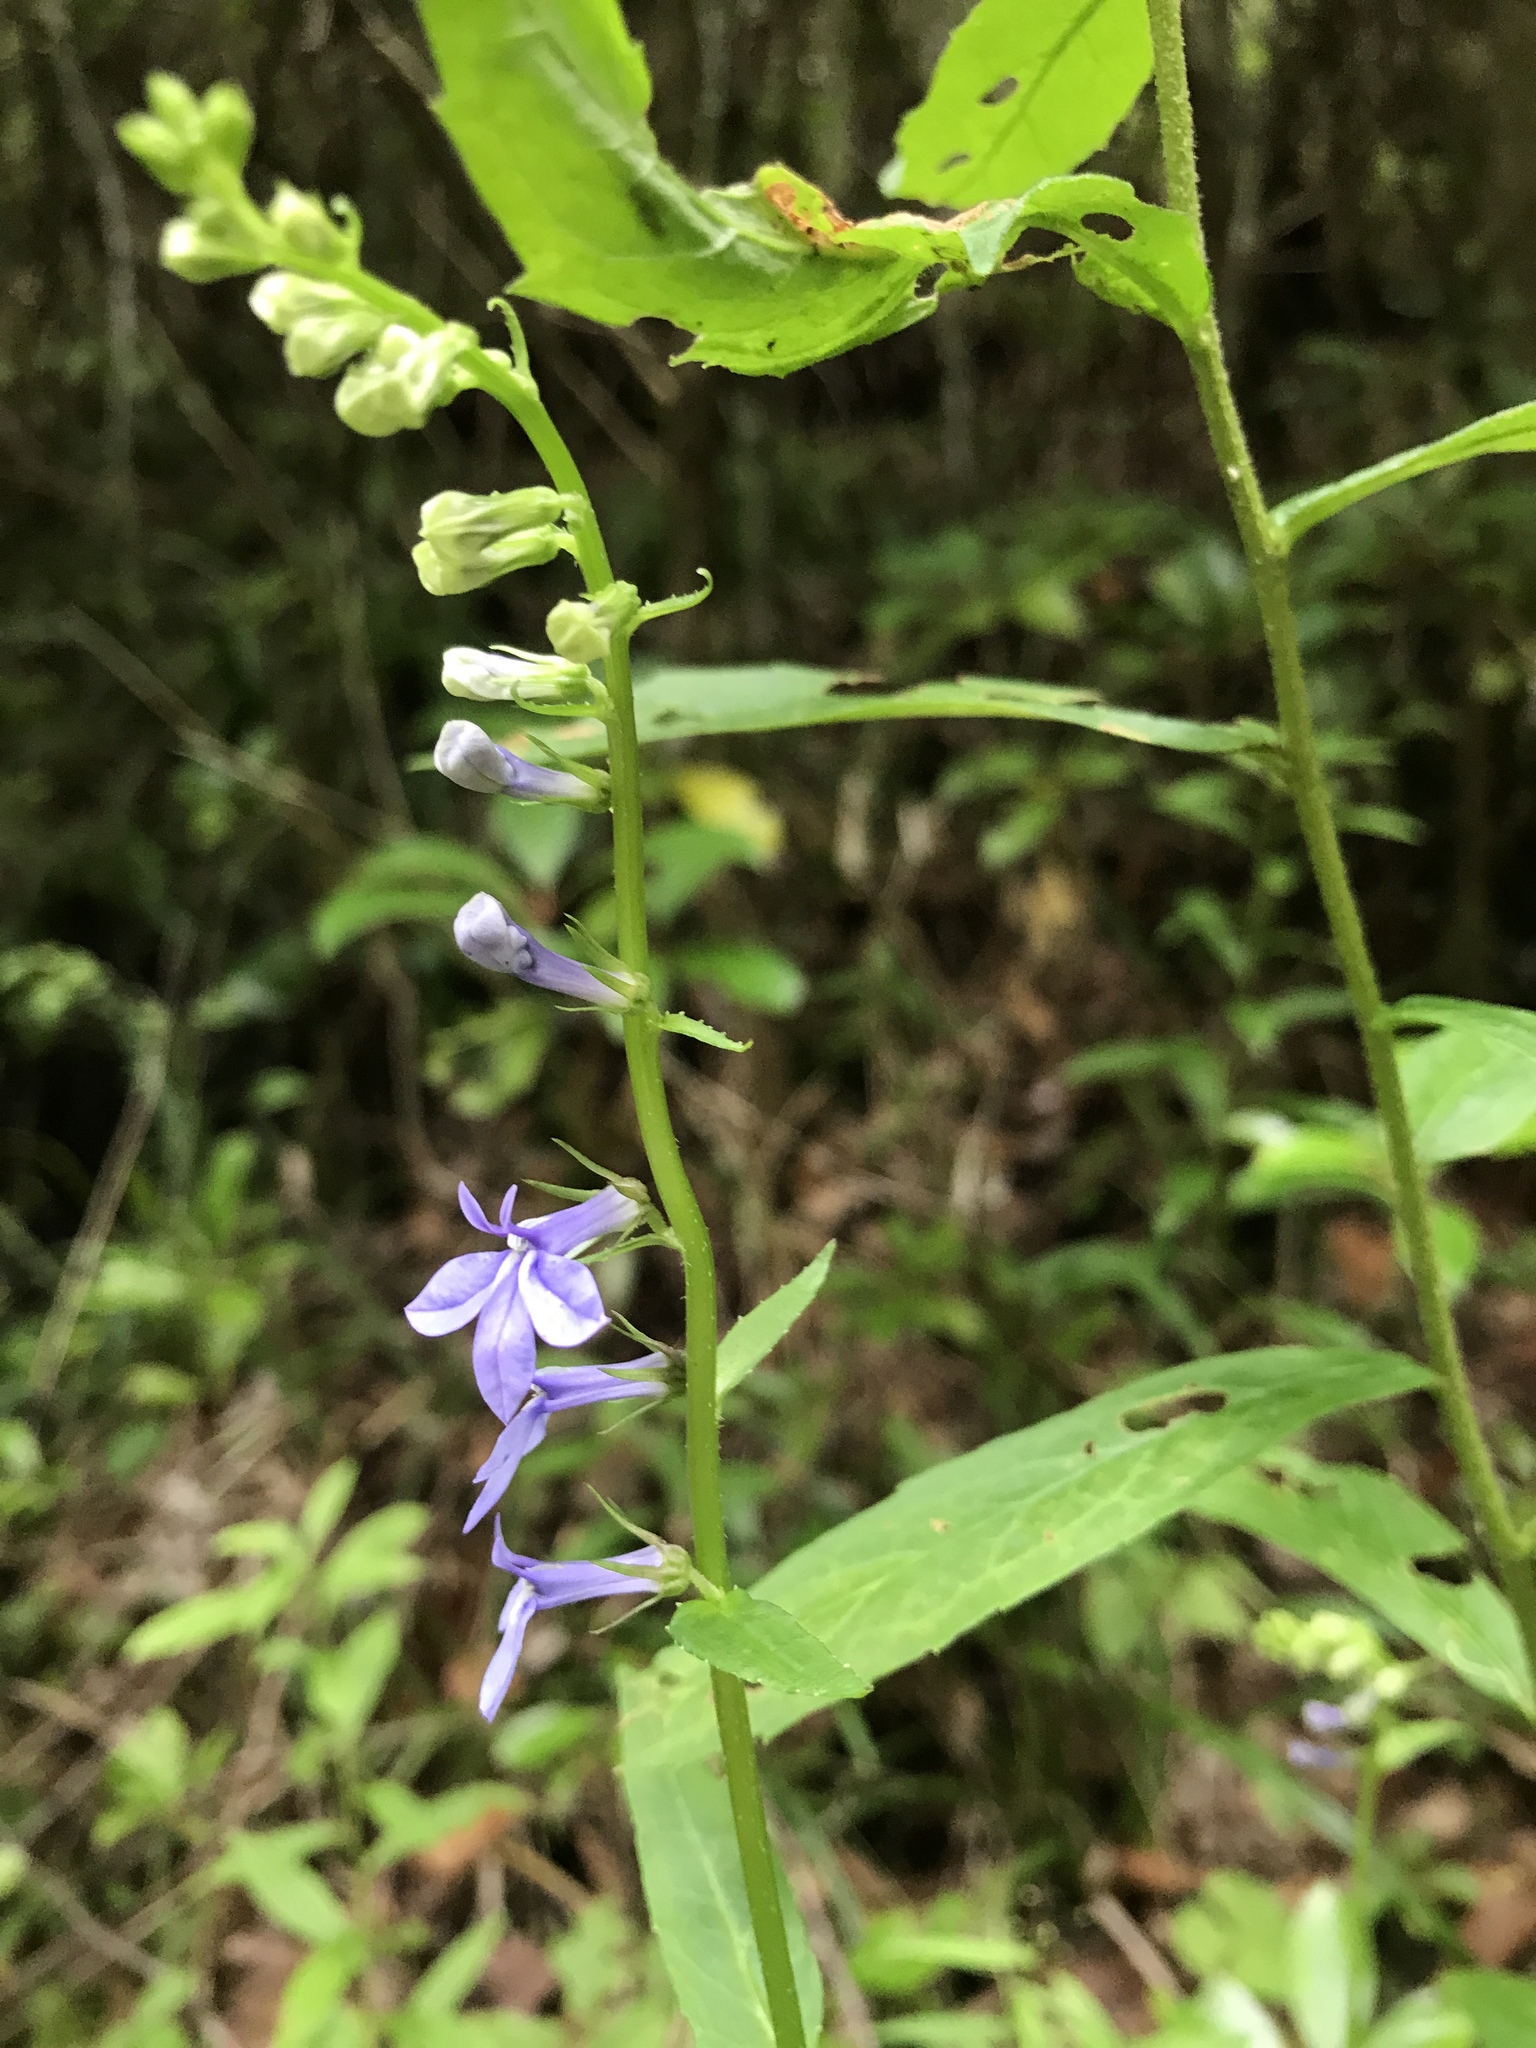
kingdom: Plantae
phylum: Tracheophyta
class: Magnoliopsida
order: Asterales
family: Campanulaceae
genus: Lobelia
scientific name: Lobelia amoena
